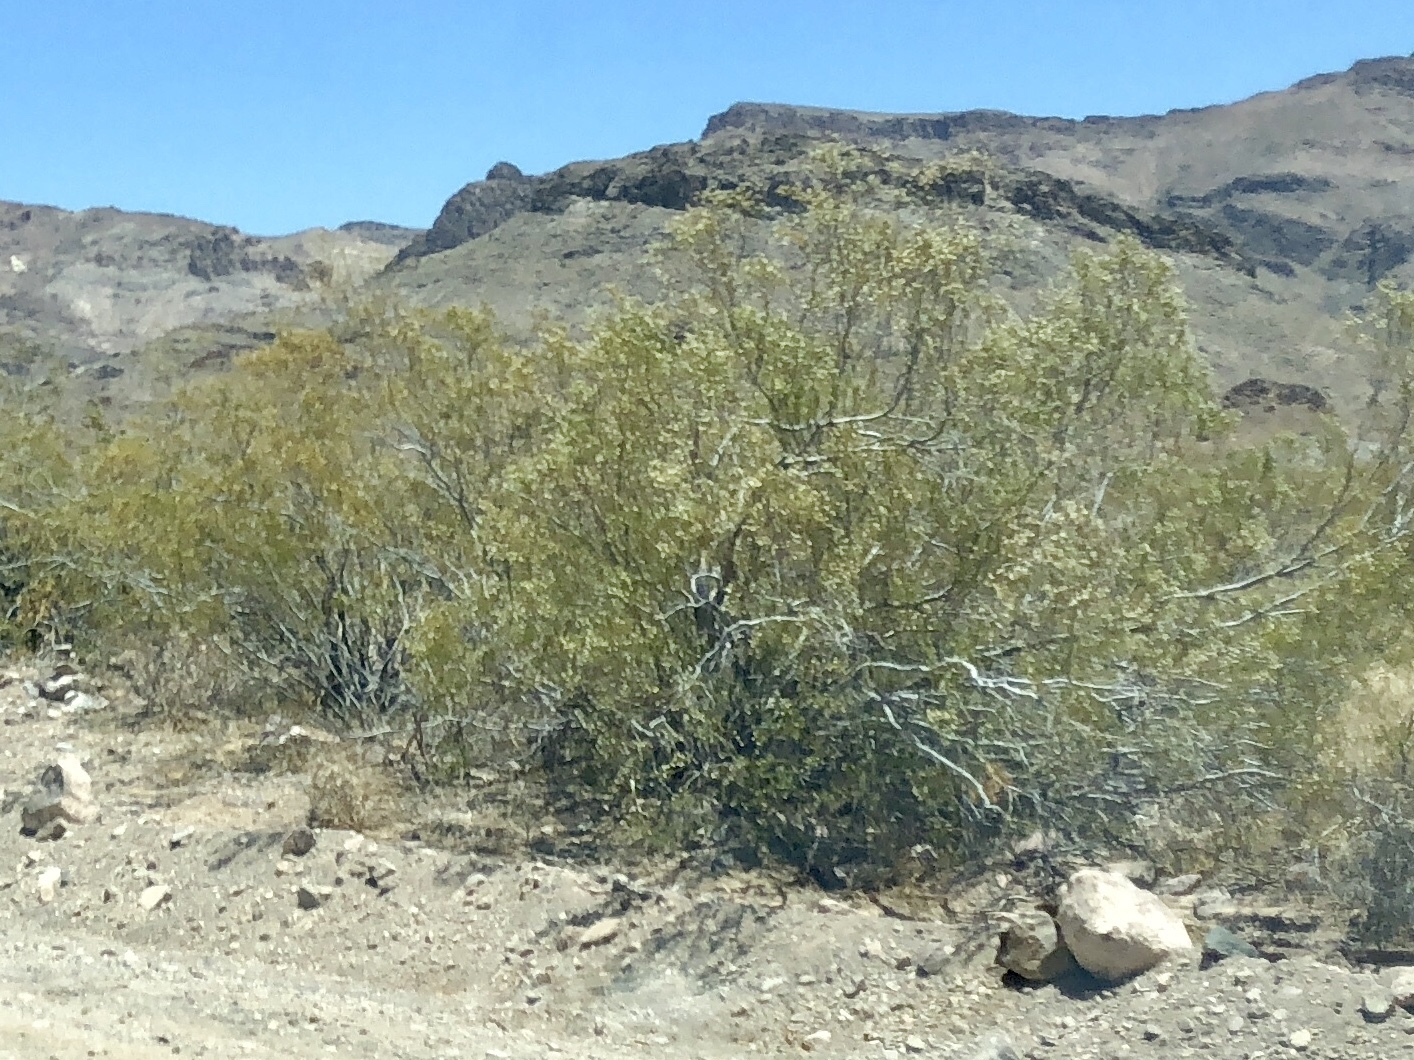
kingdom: Plantae
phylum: Tracheophyta
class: Magnoliopsida
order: Zygophyllales
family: Zygophyllaceae
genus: Larrea
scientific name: Larrea tridentata
